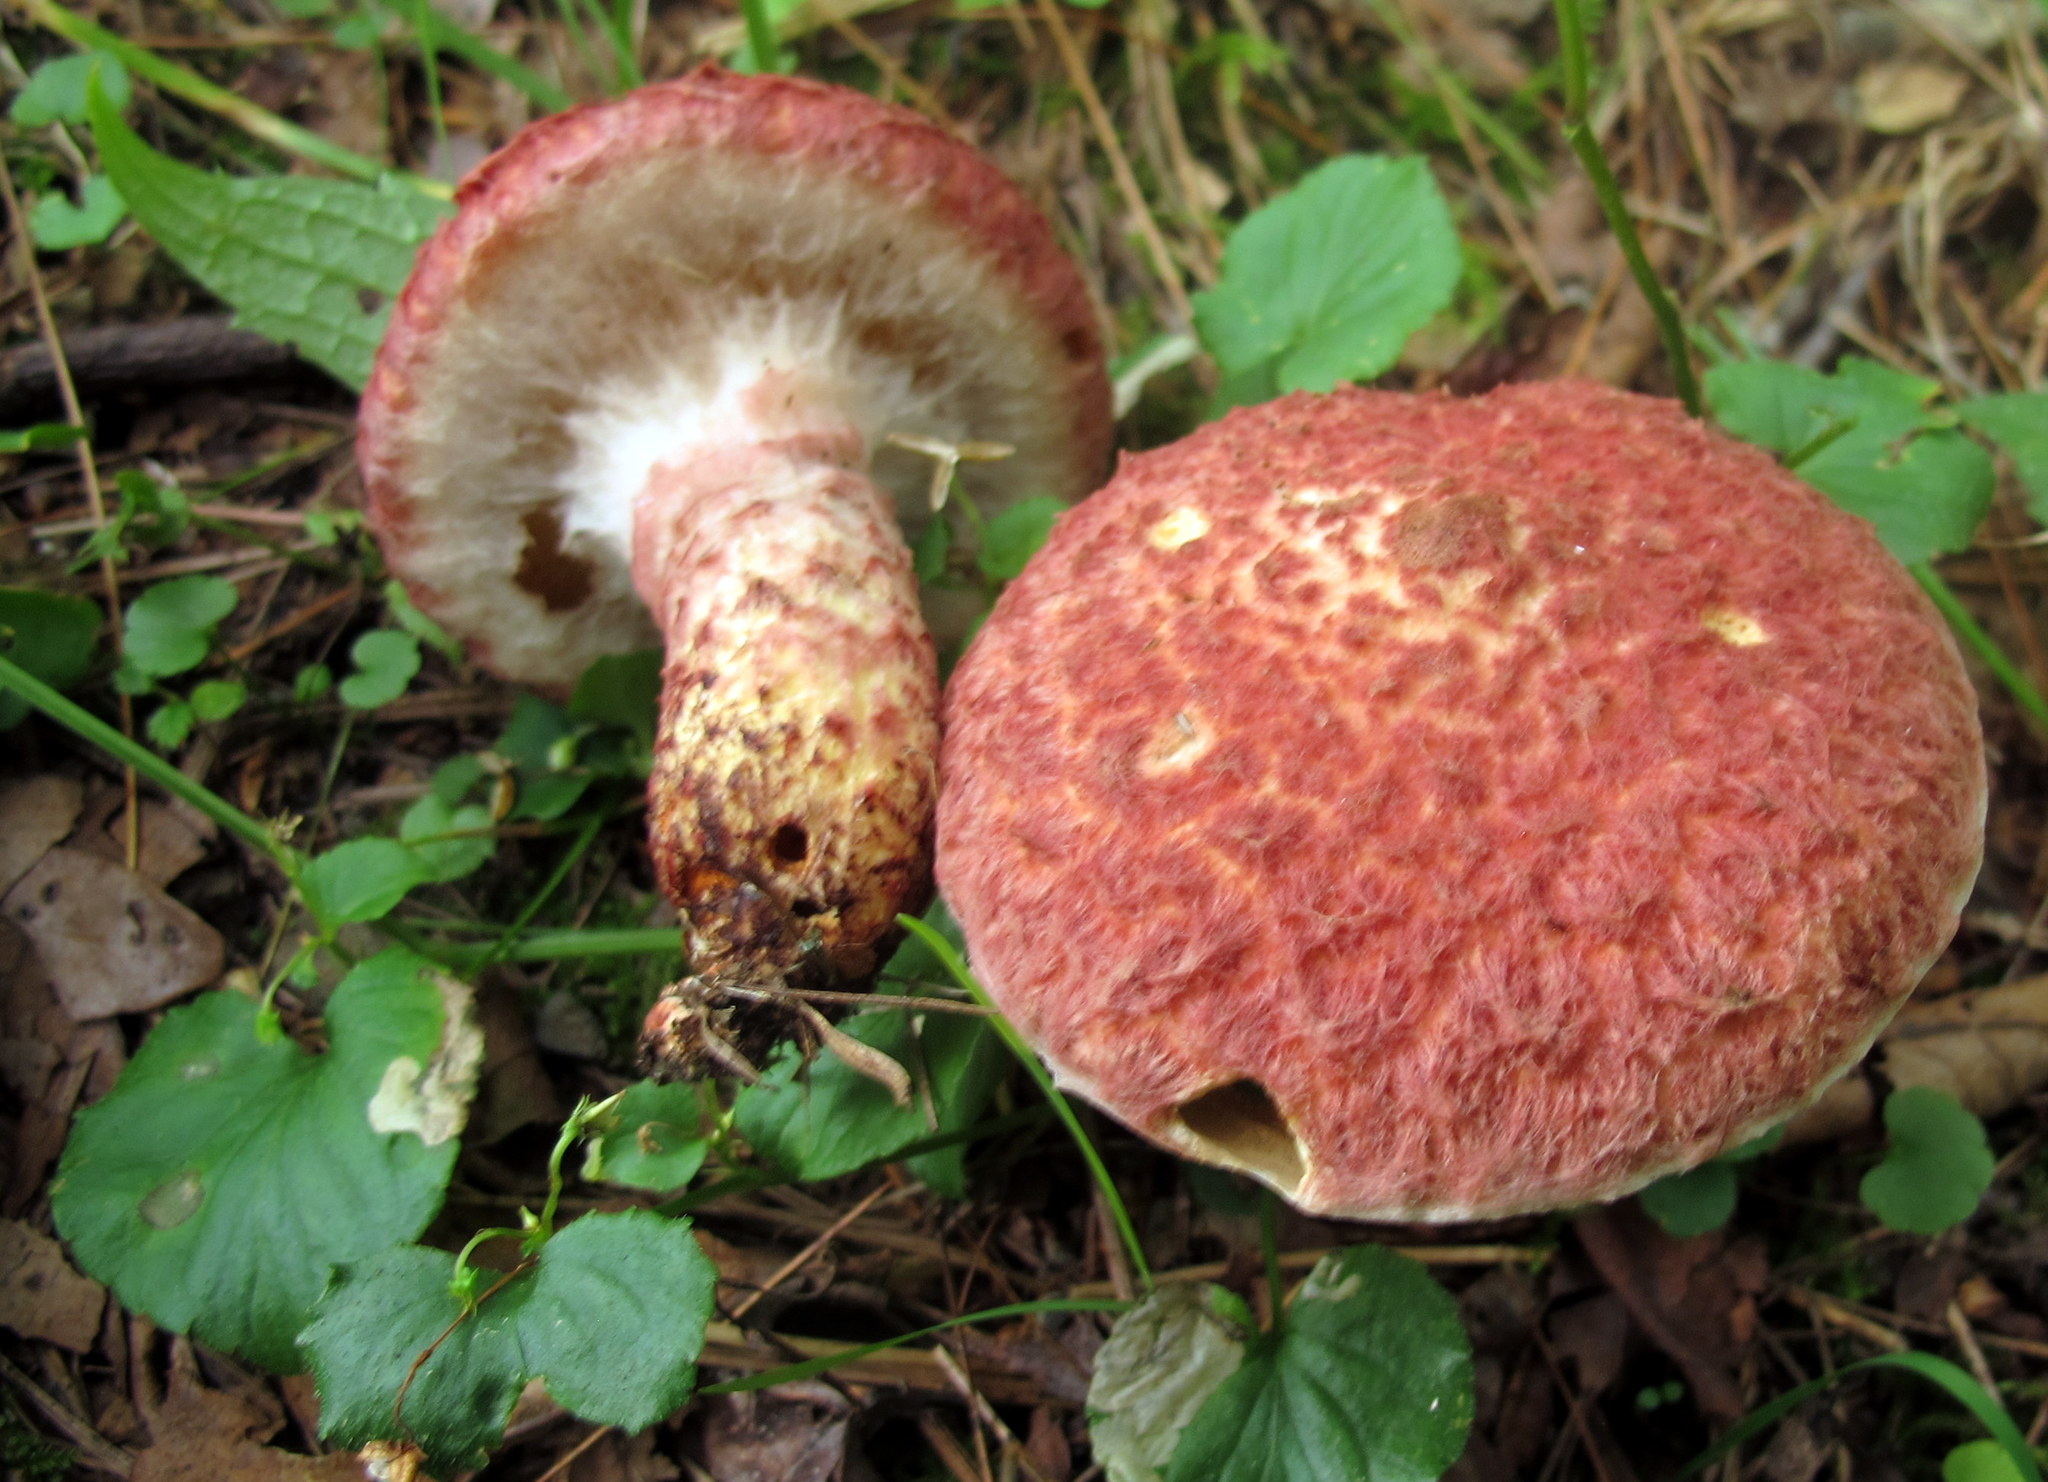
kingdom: Fungi
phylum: Basidiomycota
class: Agaricomycetes
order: Boletales
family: Suillaceae
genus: Suillus
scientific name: Suillus spraguei
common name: Painted suillus
